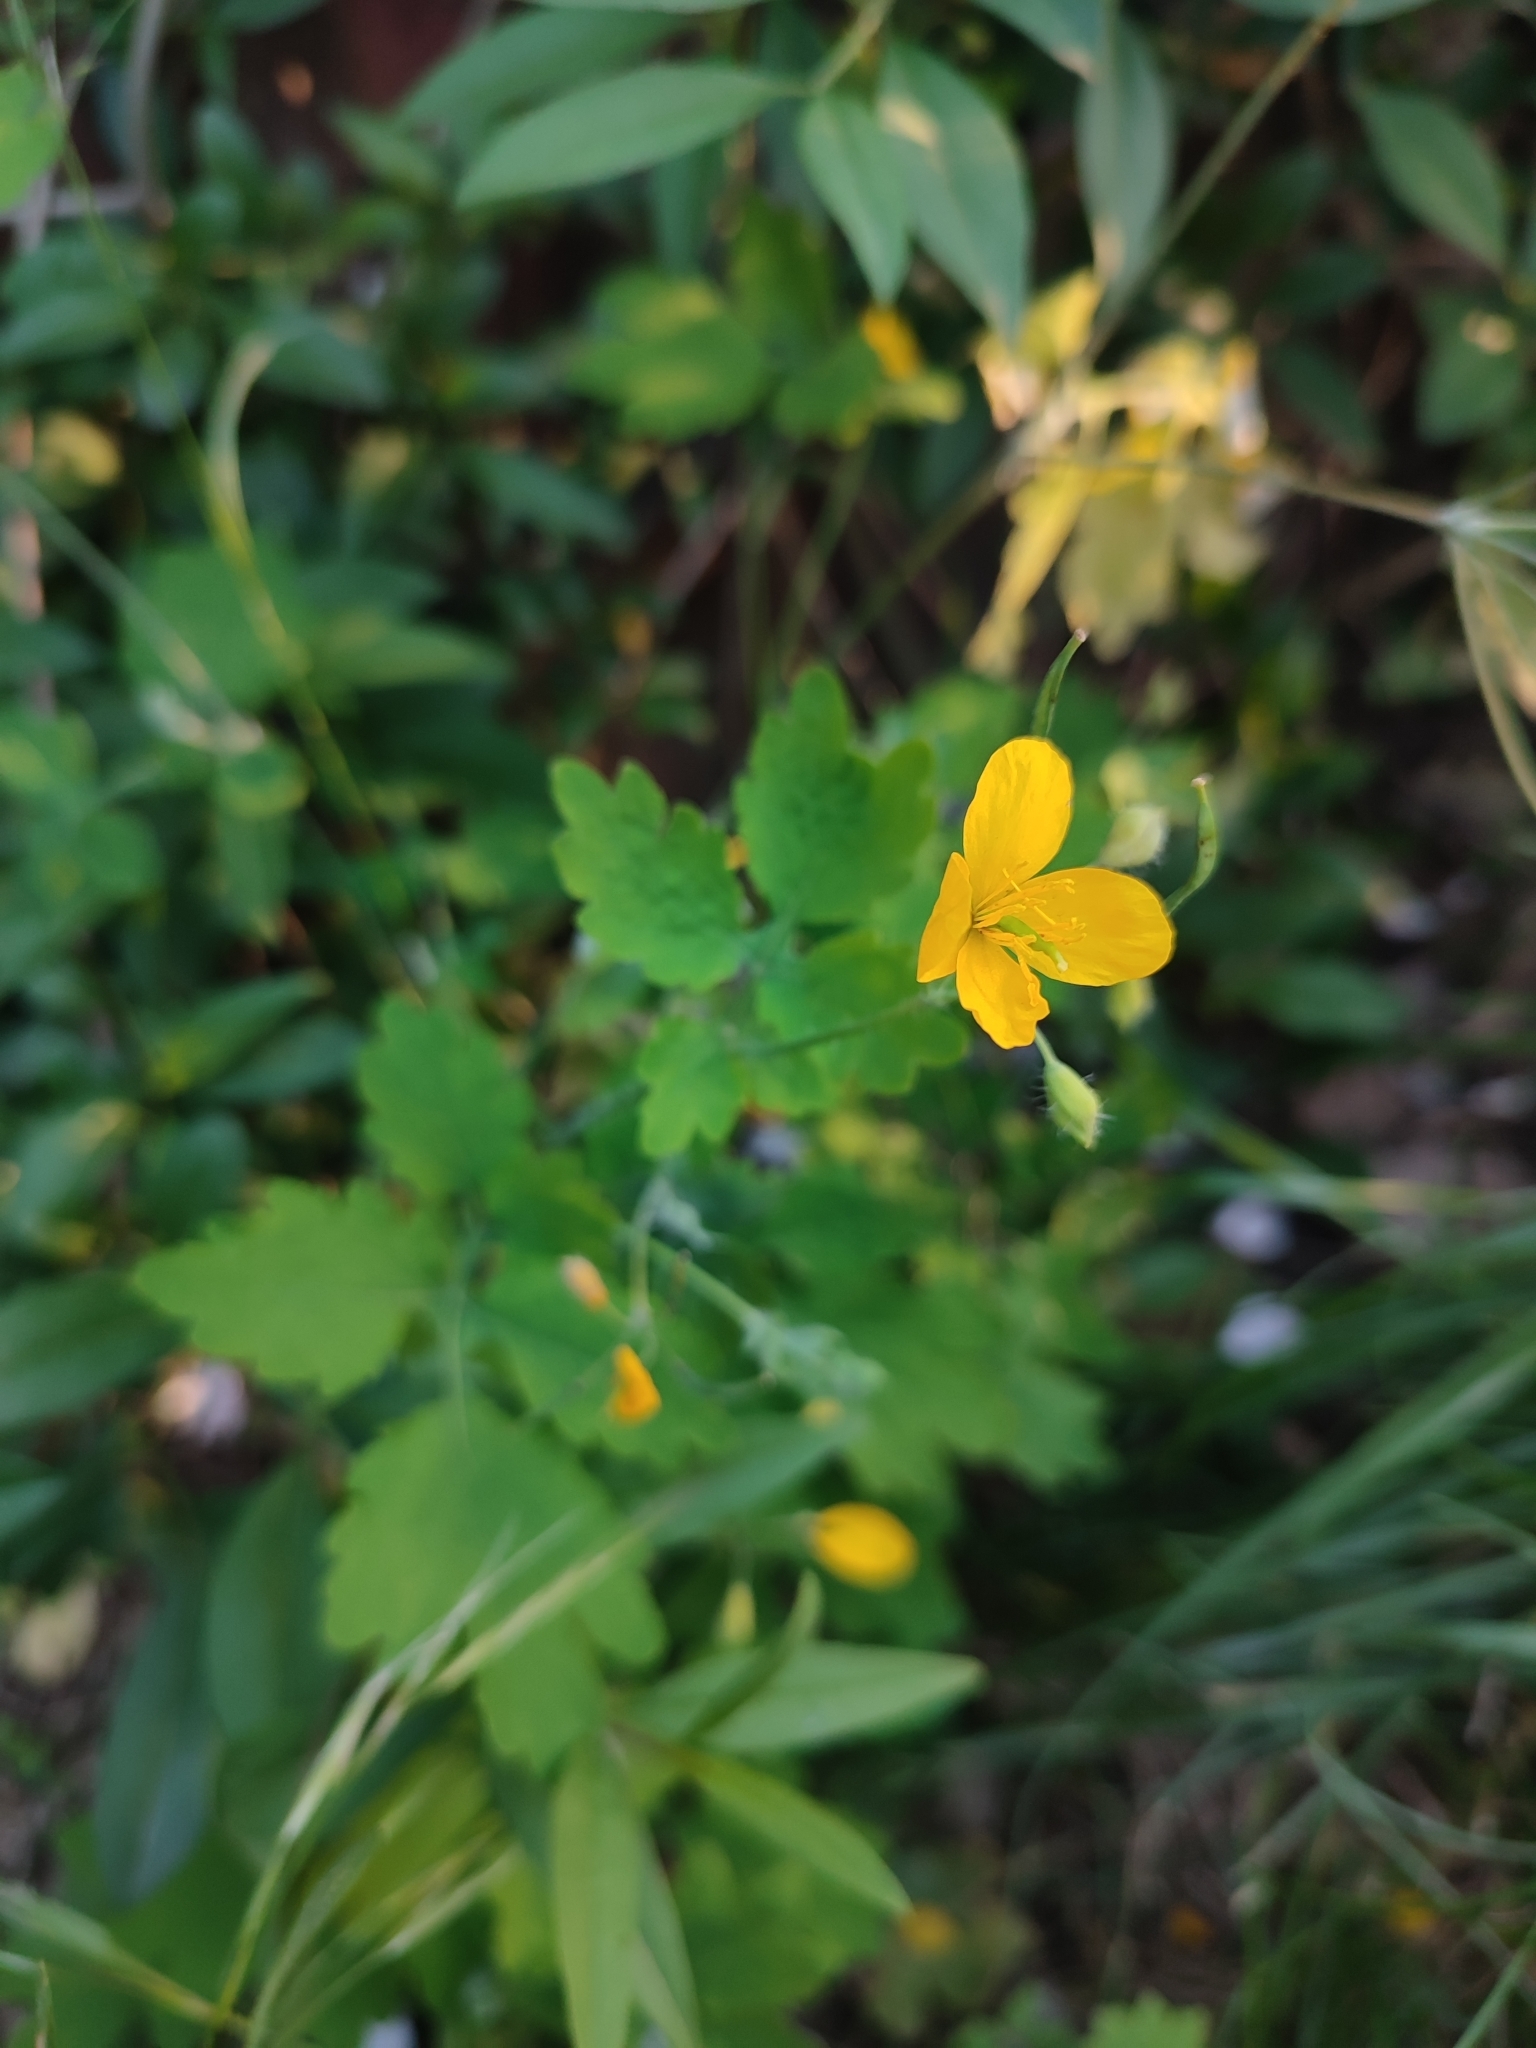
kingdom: Plantae
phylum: Tracheophyta
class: Magnoliopsida
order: Ranunculales
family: Papaveraceae
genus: Chelidonium
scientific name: Chelidonium majus
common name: Greater celandine
